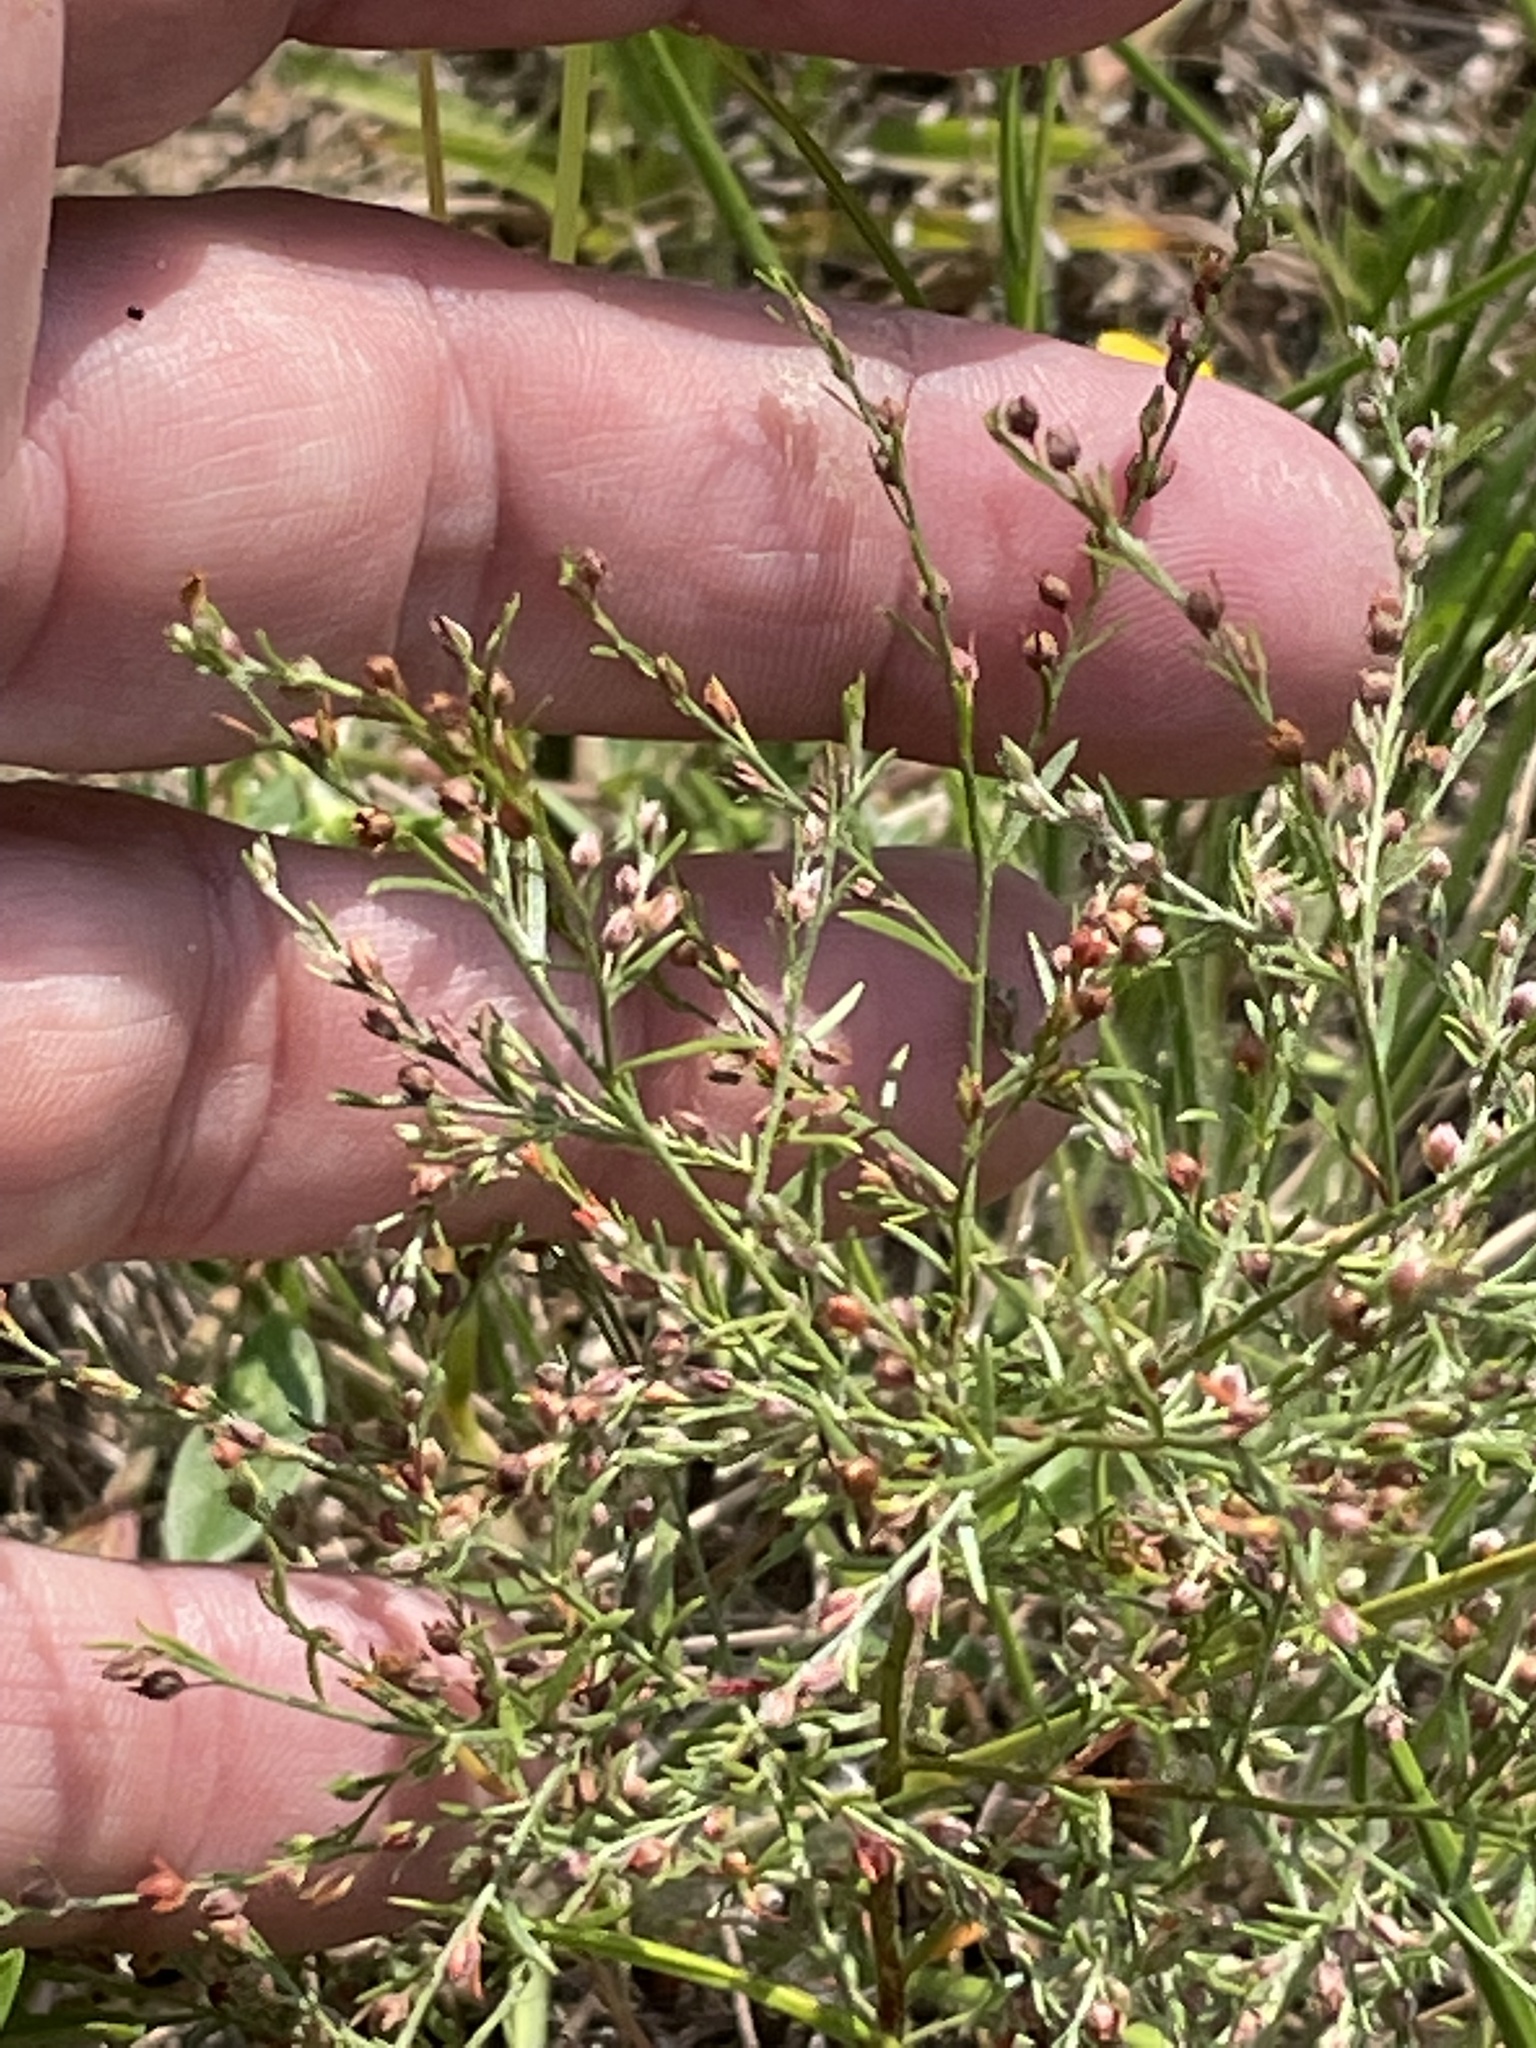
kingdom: Plantae
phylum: Tracheophyta
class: Magnoliopsida
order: Malvales
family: Cistaceae
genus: Lechea
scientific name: Lechea tenuifolia
